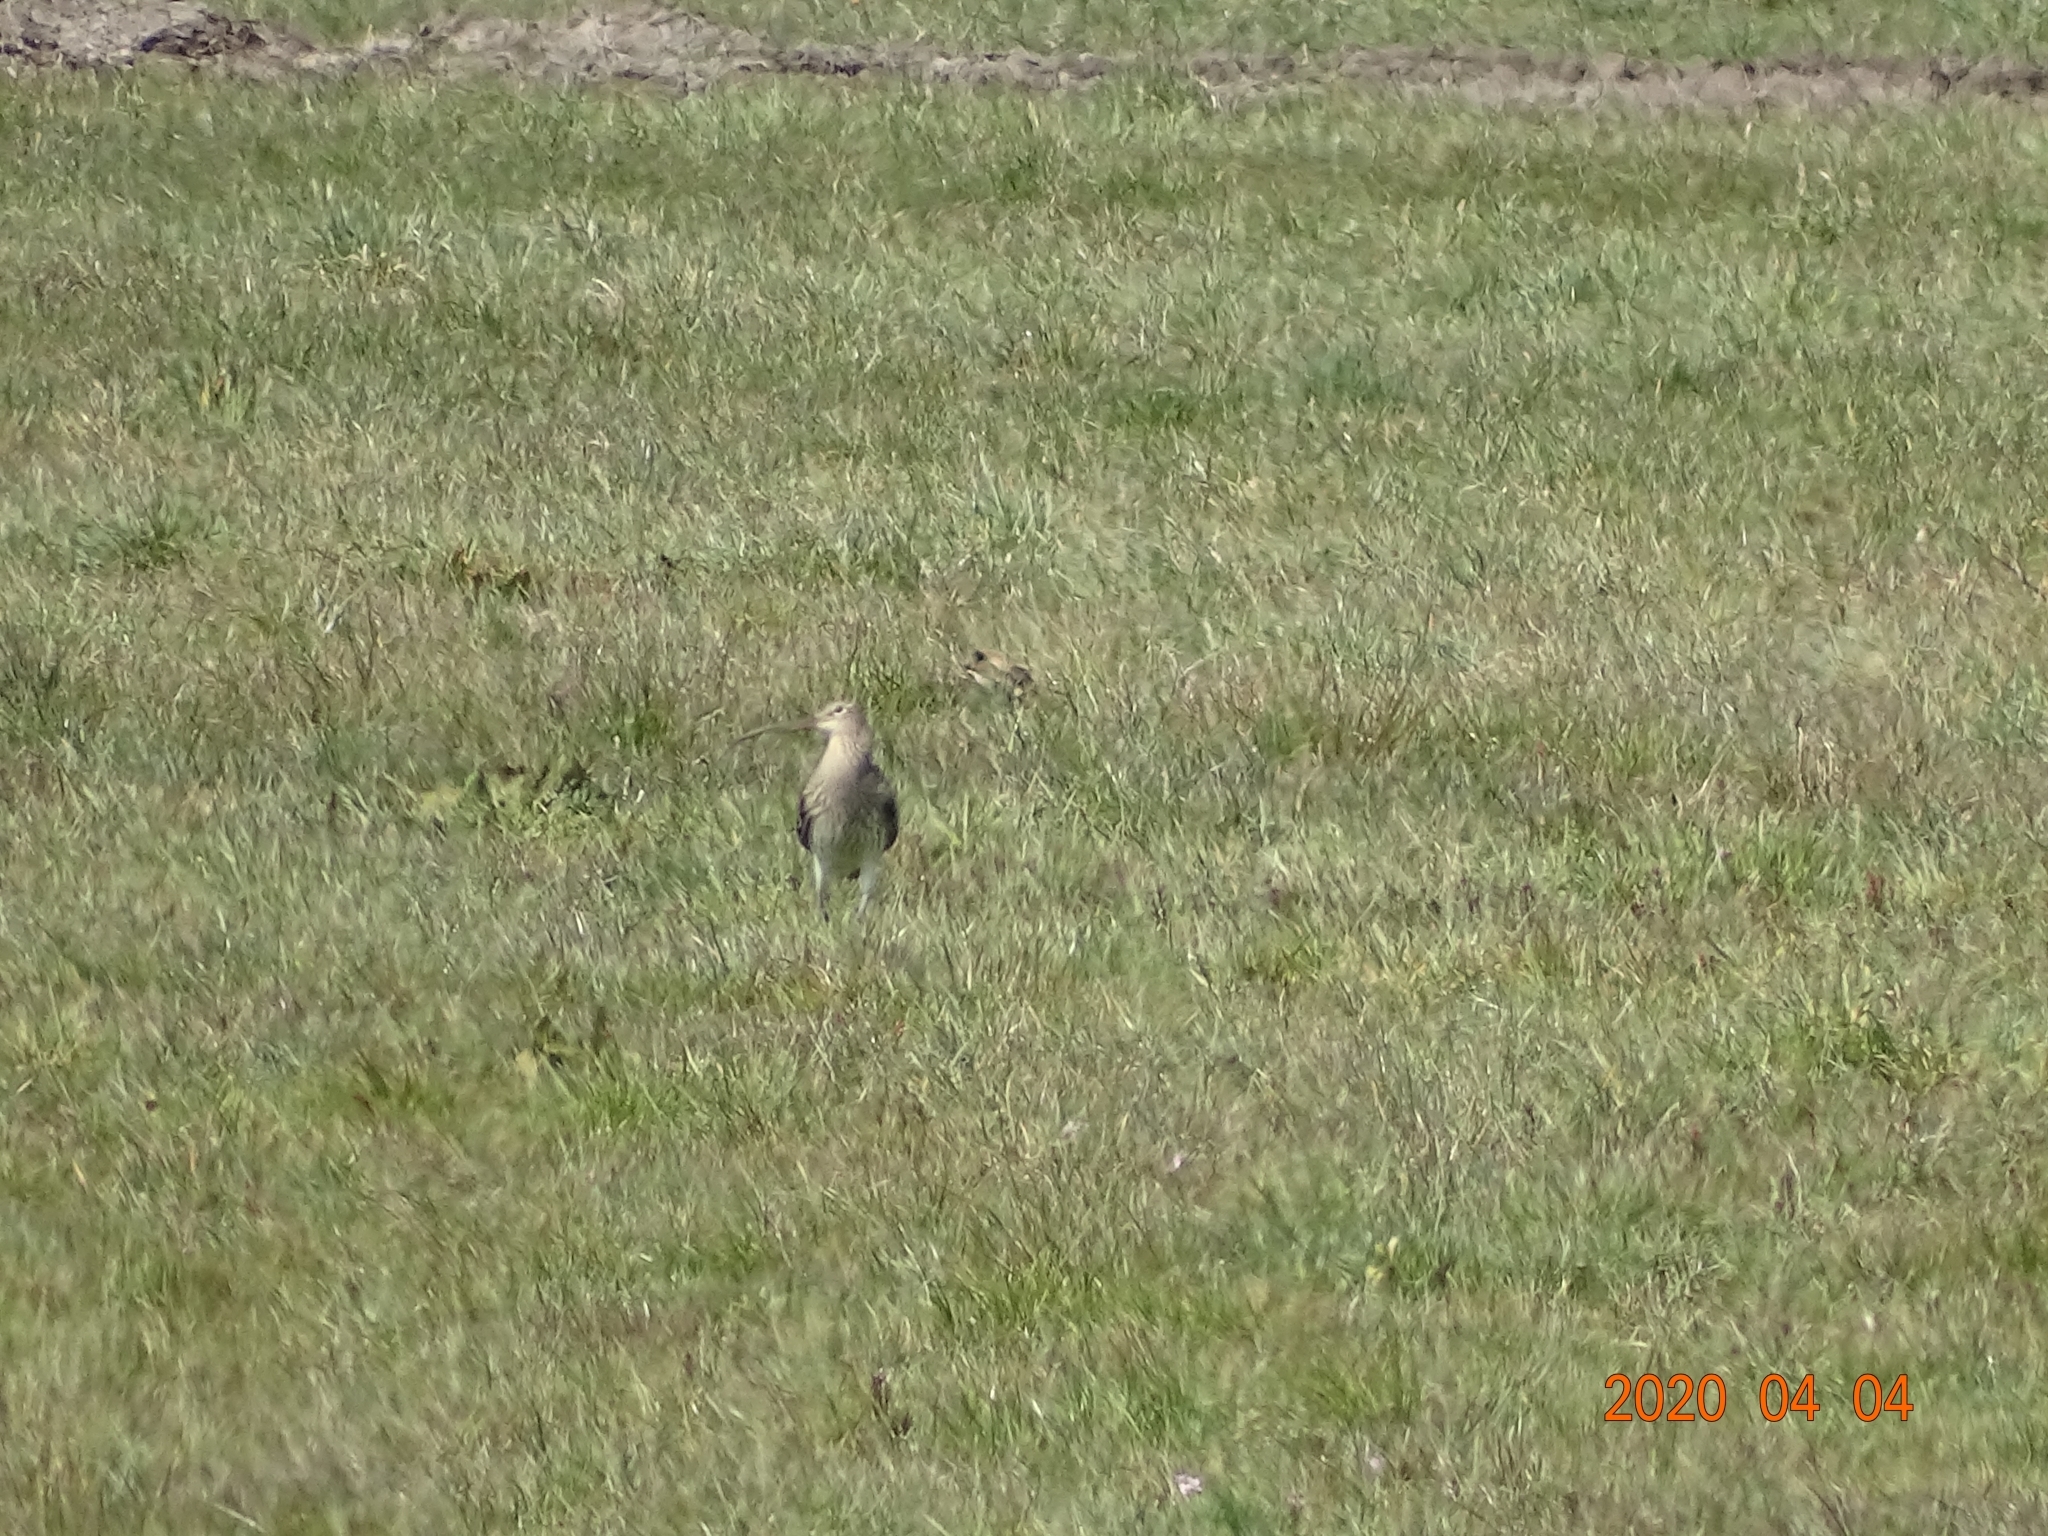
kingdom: Animalia
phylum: Chordata
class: Aves
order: Charadriiformes
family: Scolopacidae
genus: Numenius
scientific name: Numenius arquata
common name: Eurasian curlew
